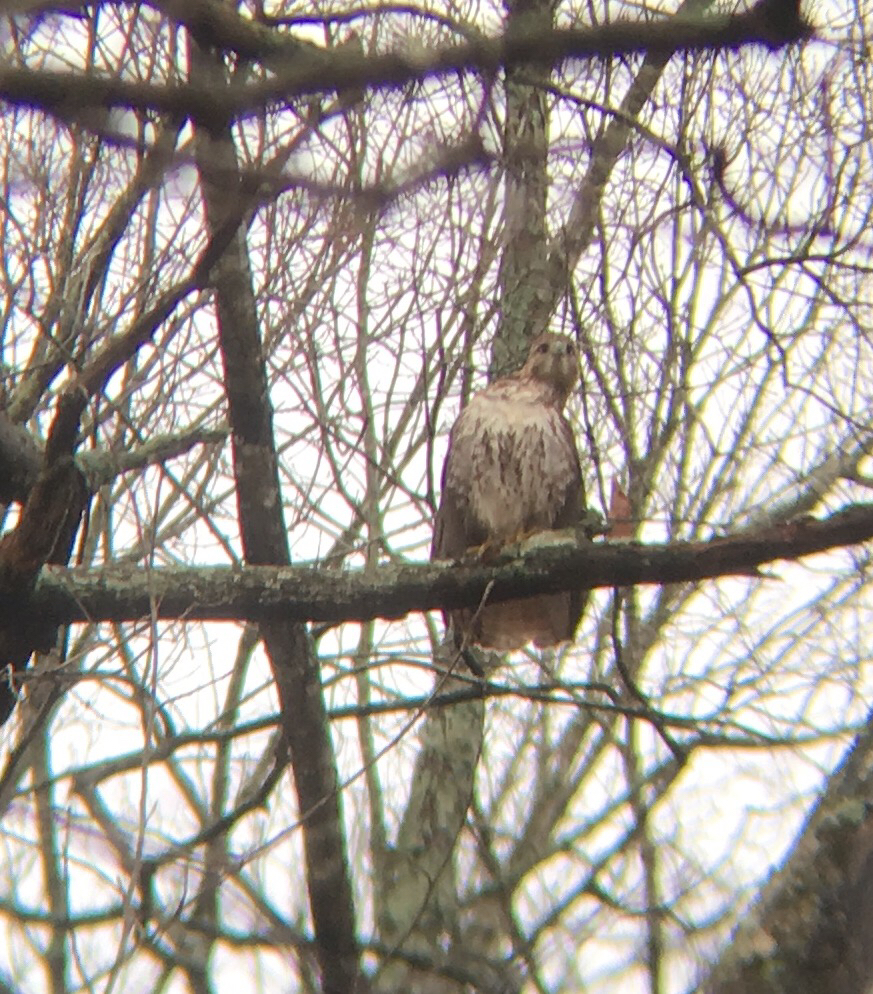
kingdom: Animalia
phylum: Chordata
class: Aves
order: Accipitriformes
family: Accipitridae
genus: Buteo
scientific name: Buteo jamaicensis
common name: Red-tailed hawk
